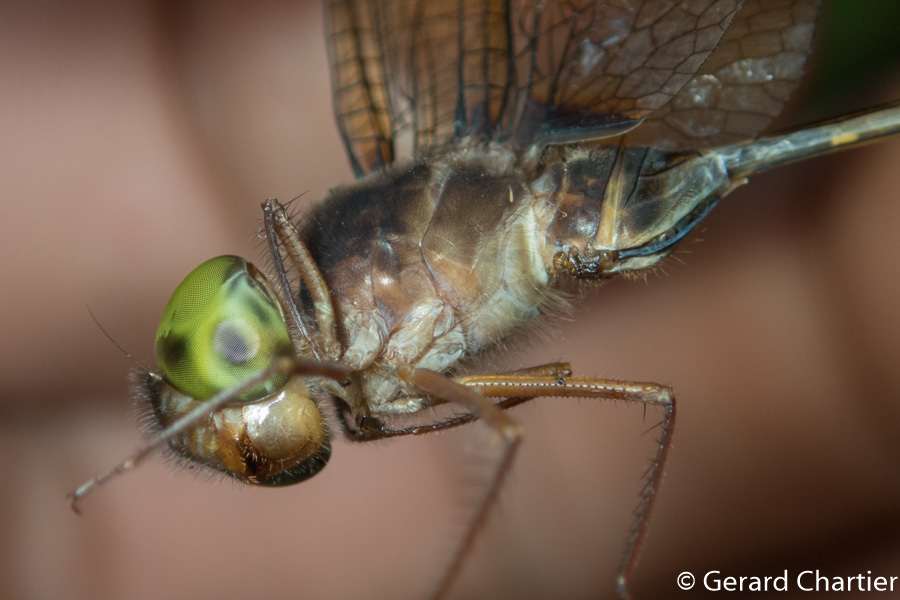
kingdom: Animalia
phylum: Arthropoda
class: Insecta
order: Odonata
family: Libellulidae
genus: Zyxomma
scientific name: Zyxomma petiolatum
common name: Dingy dusk-darter
